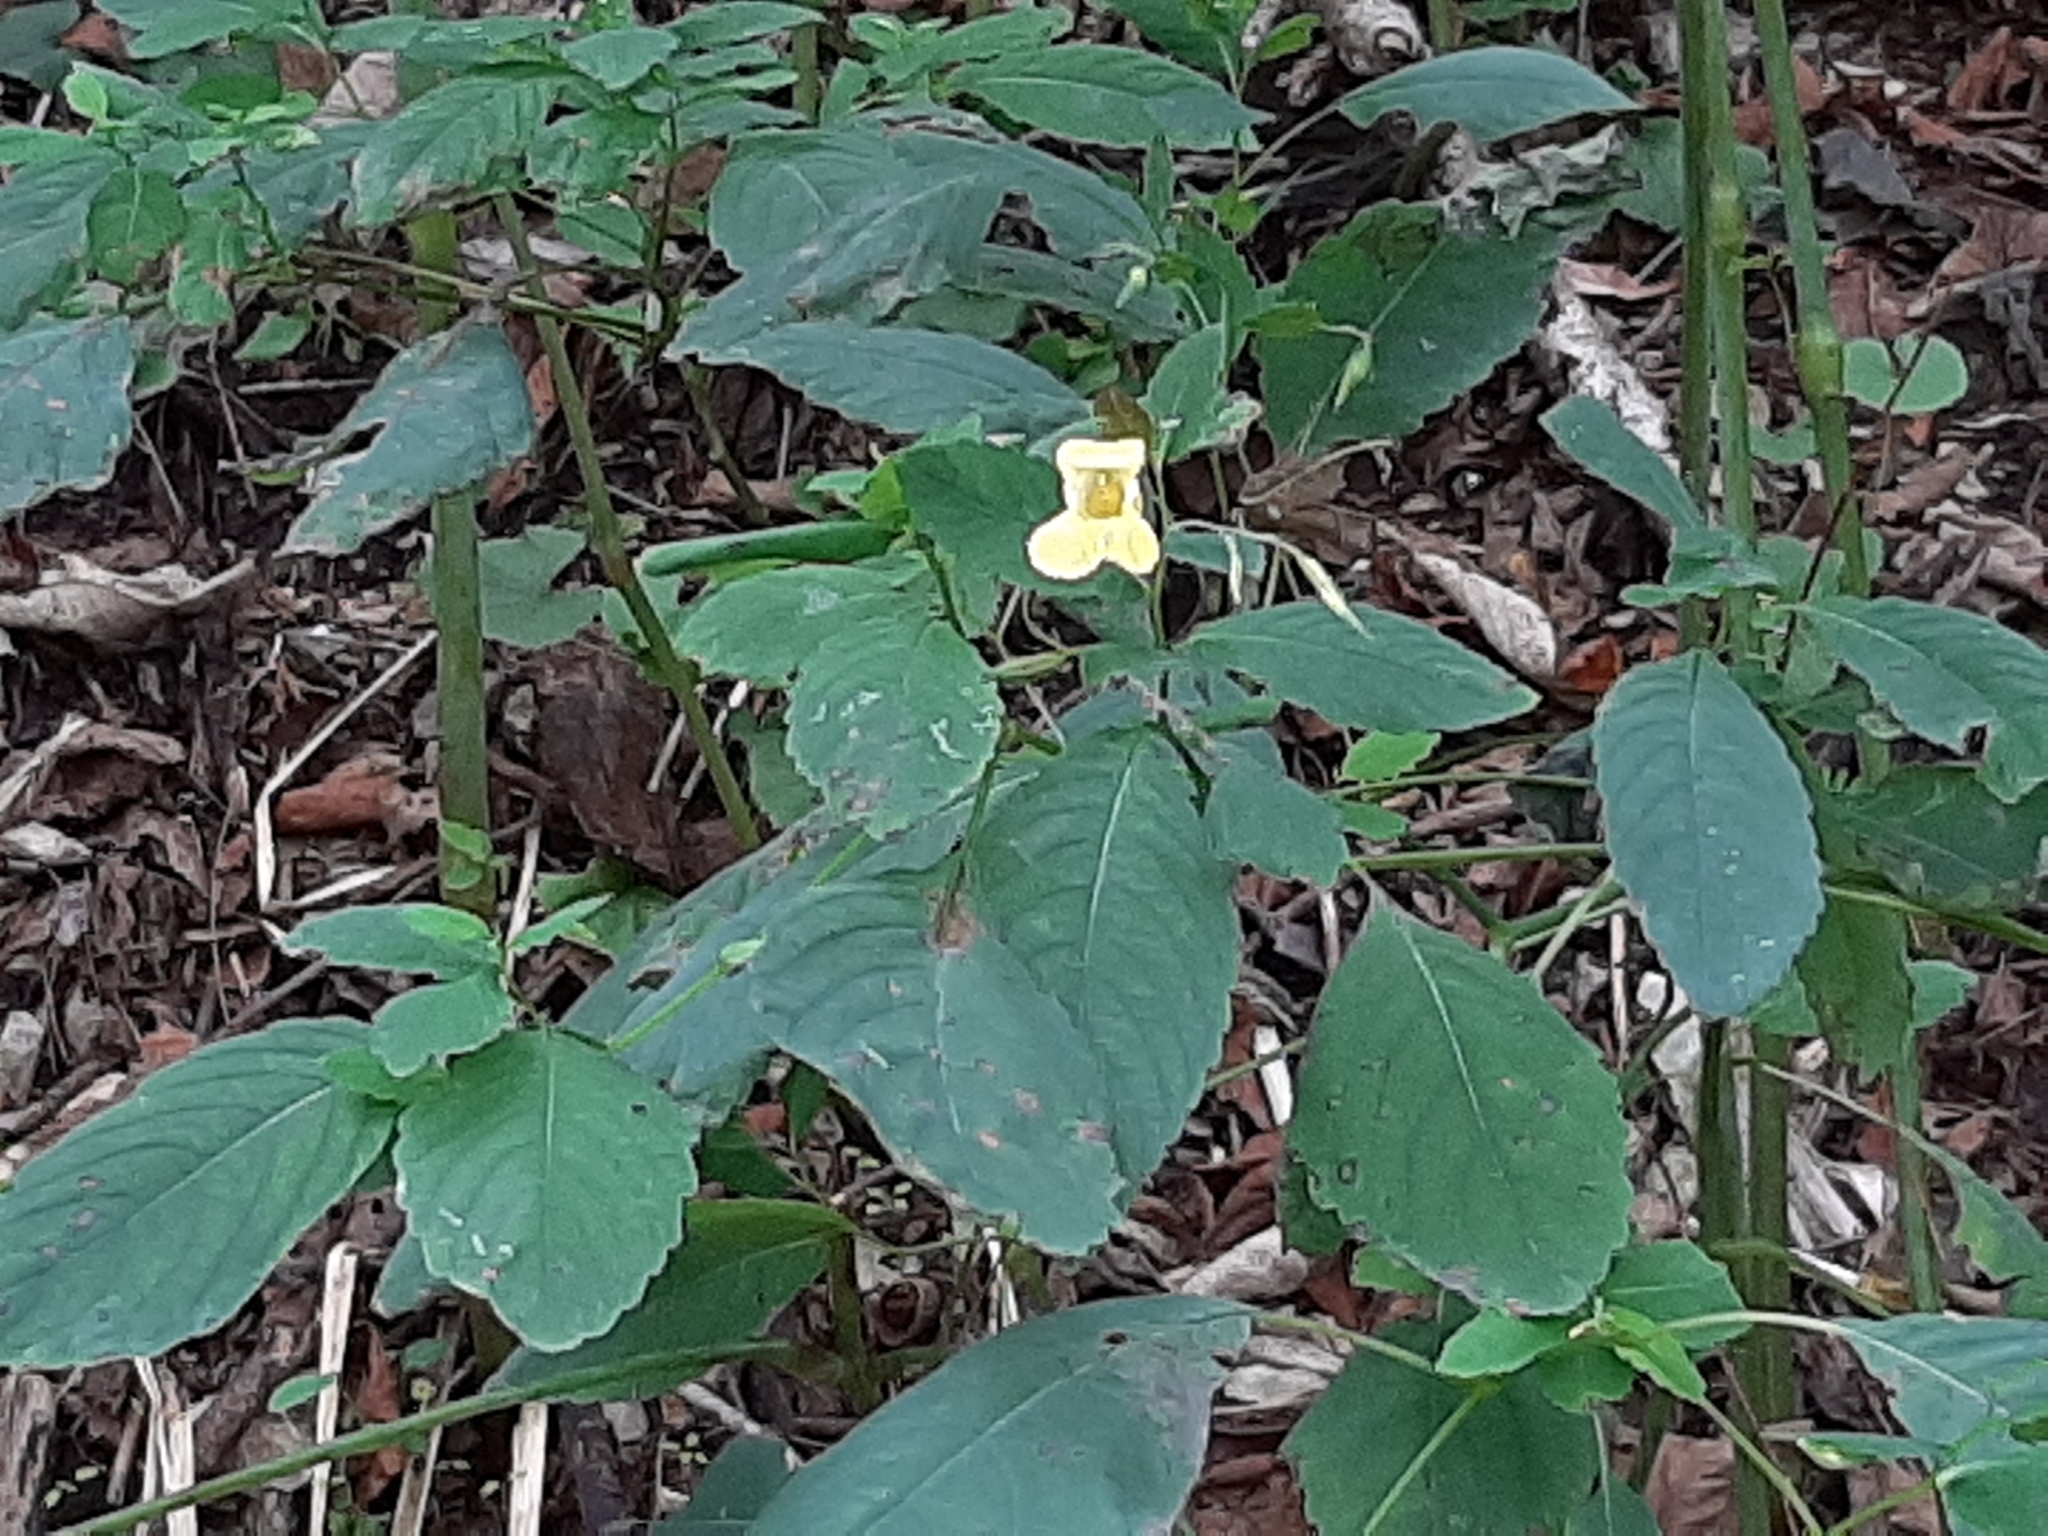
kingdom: Plantae
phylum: Tracheophyta
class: Magnoliopsida
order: Ericales
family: Balsaminaceae
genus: Impatiens
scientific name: Impatiens pallida
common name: Pale snapweed
